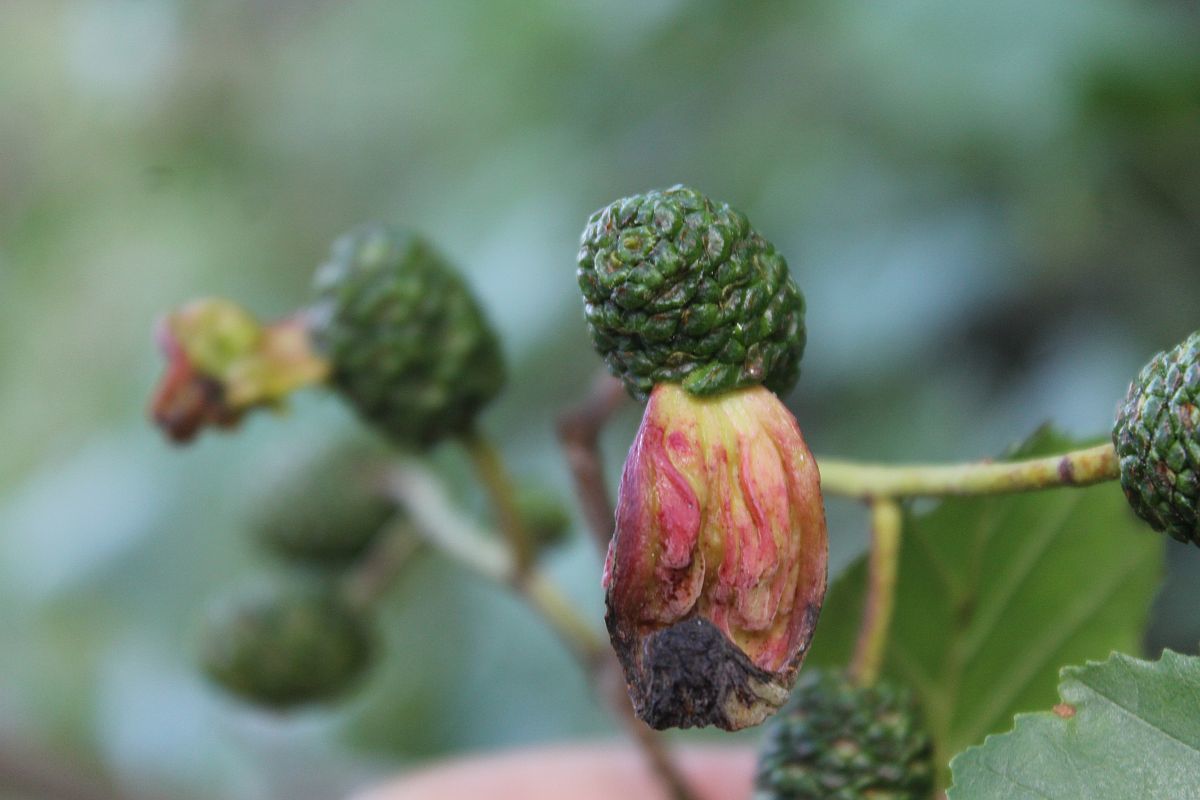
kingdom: Fungi
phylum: Ascomycota
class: Taphrinomycetes
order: Taphrinales
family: Taphrinaceae
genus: Taphrina
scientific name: Taphrina alni
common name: Alder tongue
